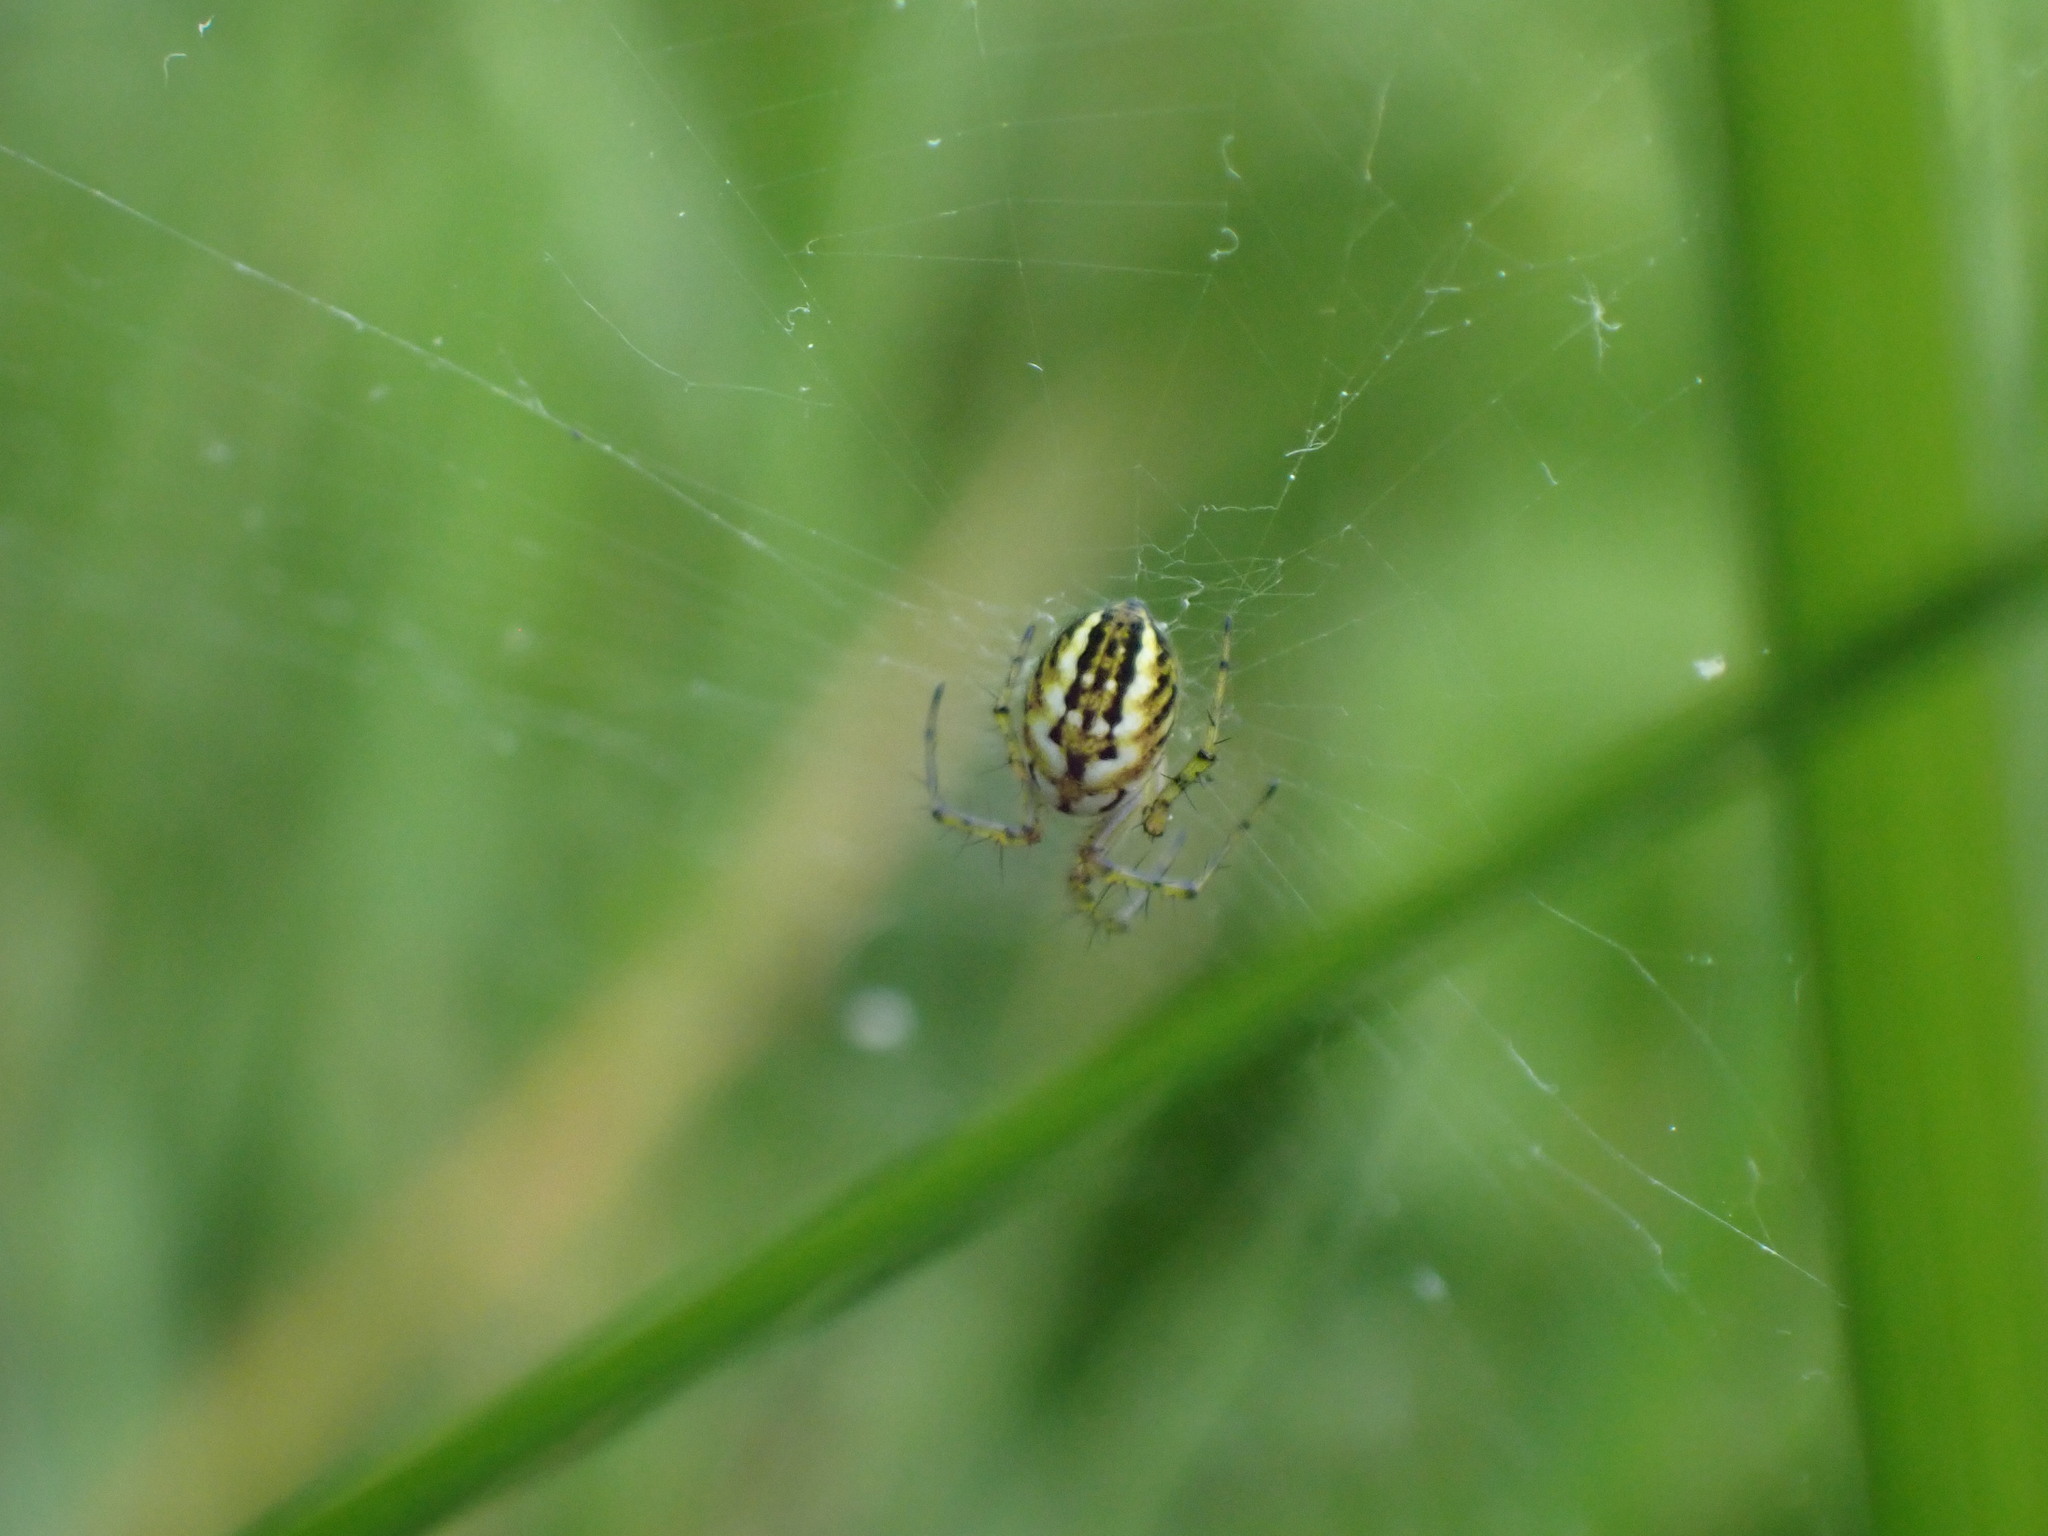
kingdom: Animalia
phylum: Arthropoda
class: Arachnida
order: Araneae
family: Araneidae
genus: Mangora
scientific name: Mangora acalypha
